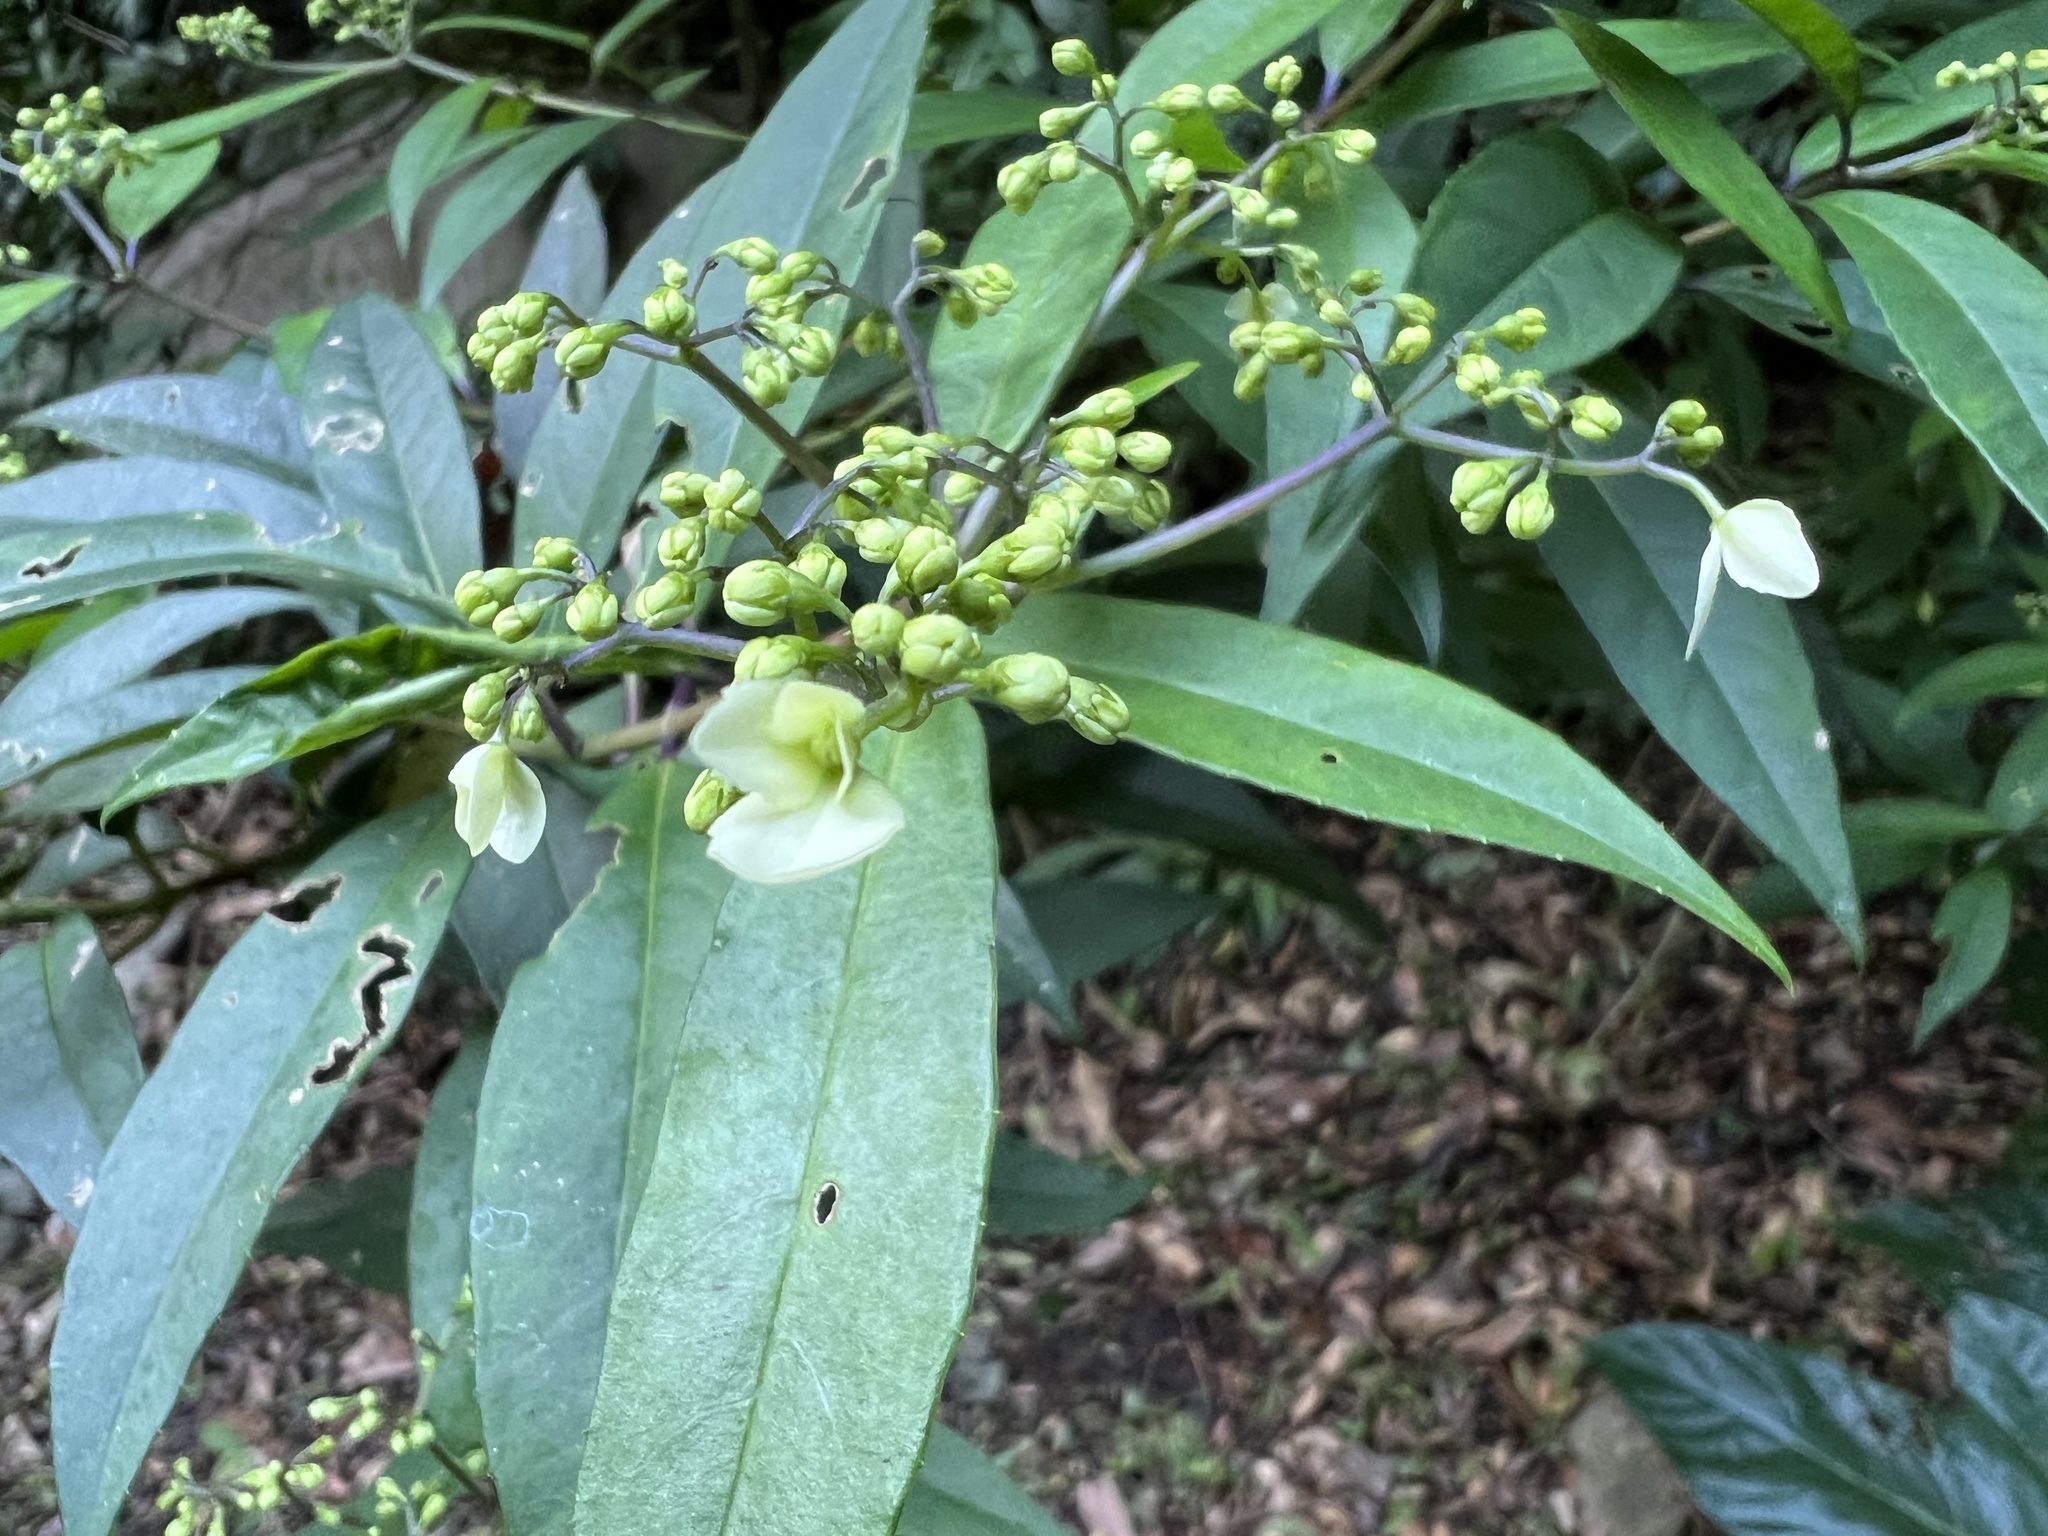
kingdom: Plantae
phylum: Tracheophyta
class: Magnoliopsida
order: Cornales
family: Hydrangeaceae
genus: Hydrangea
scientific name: Hydrangea chinensis
